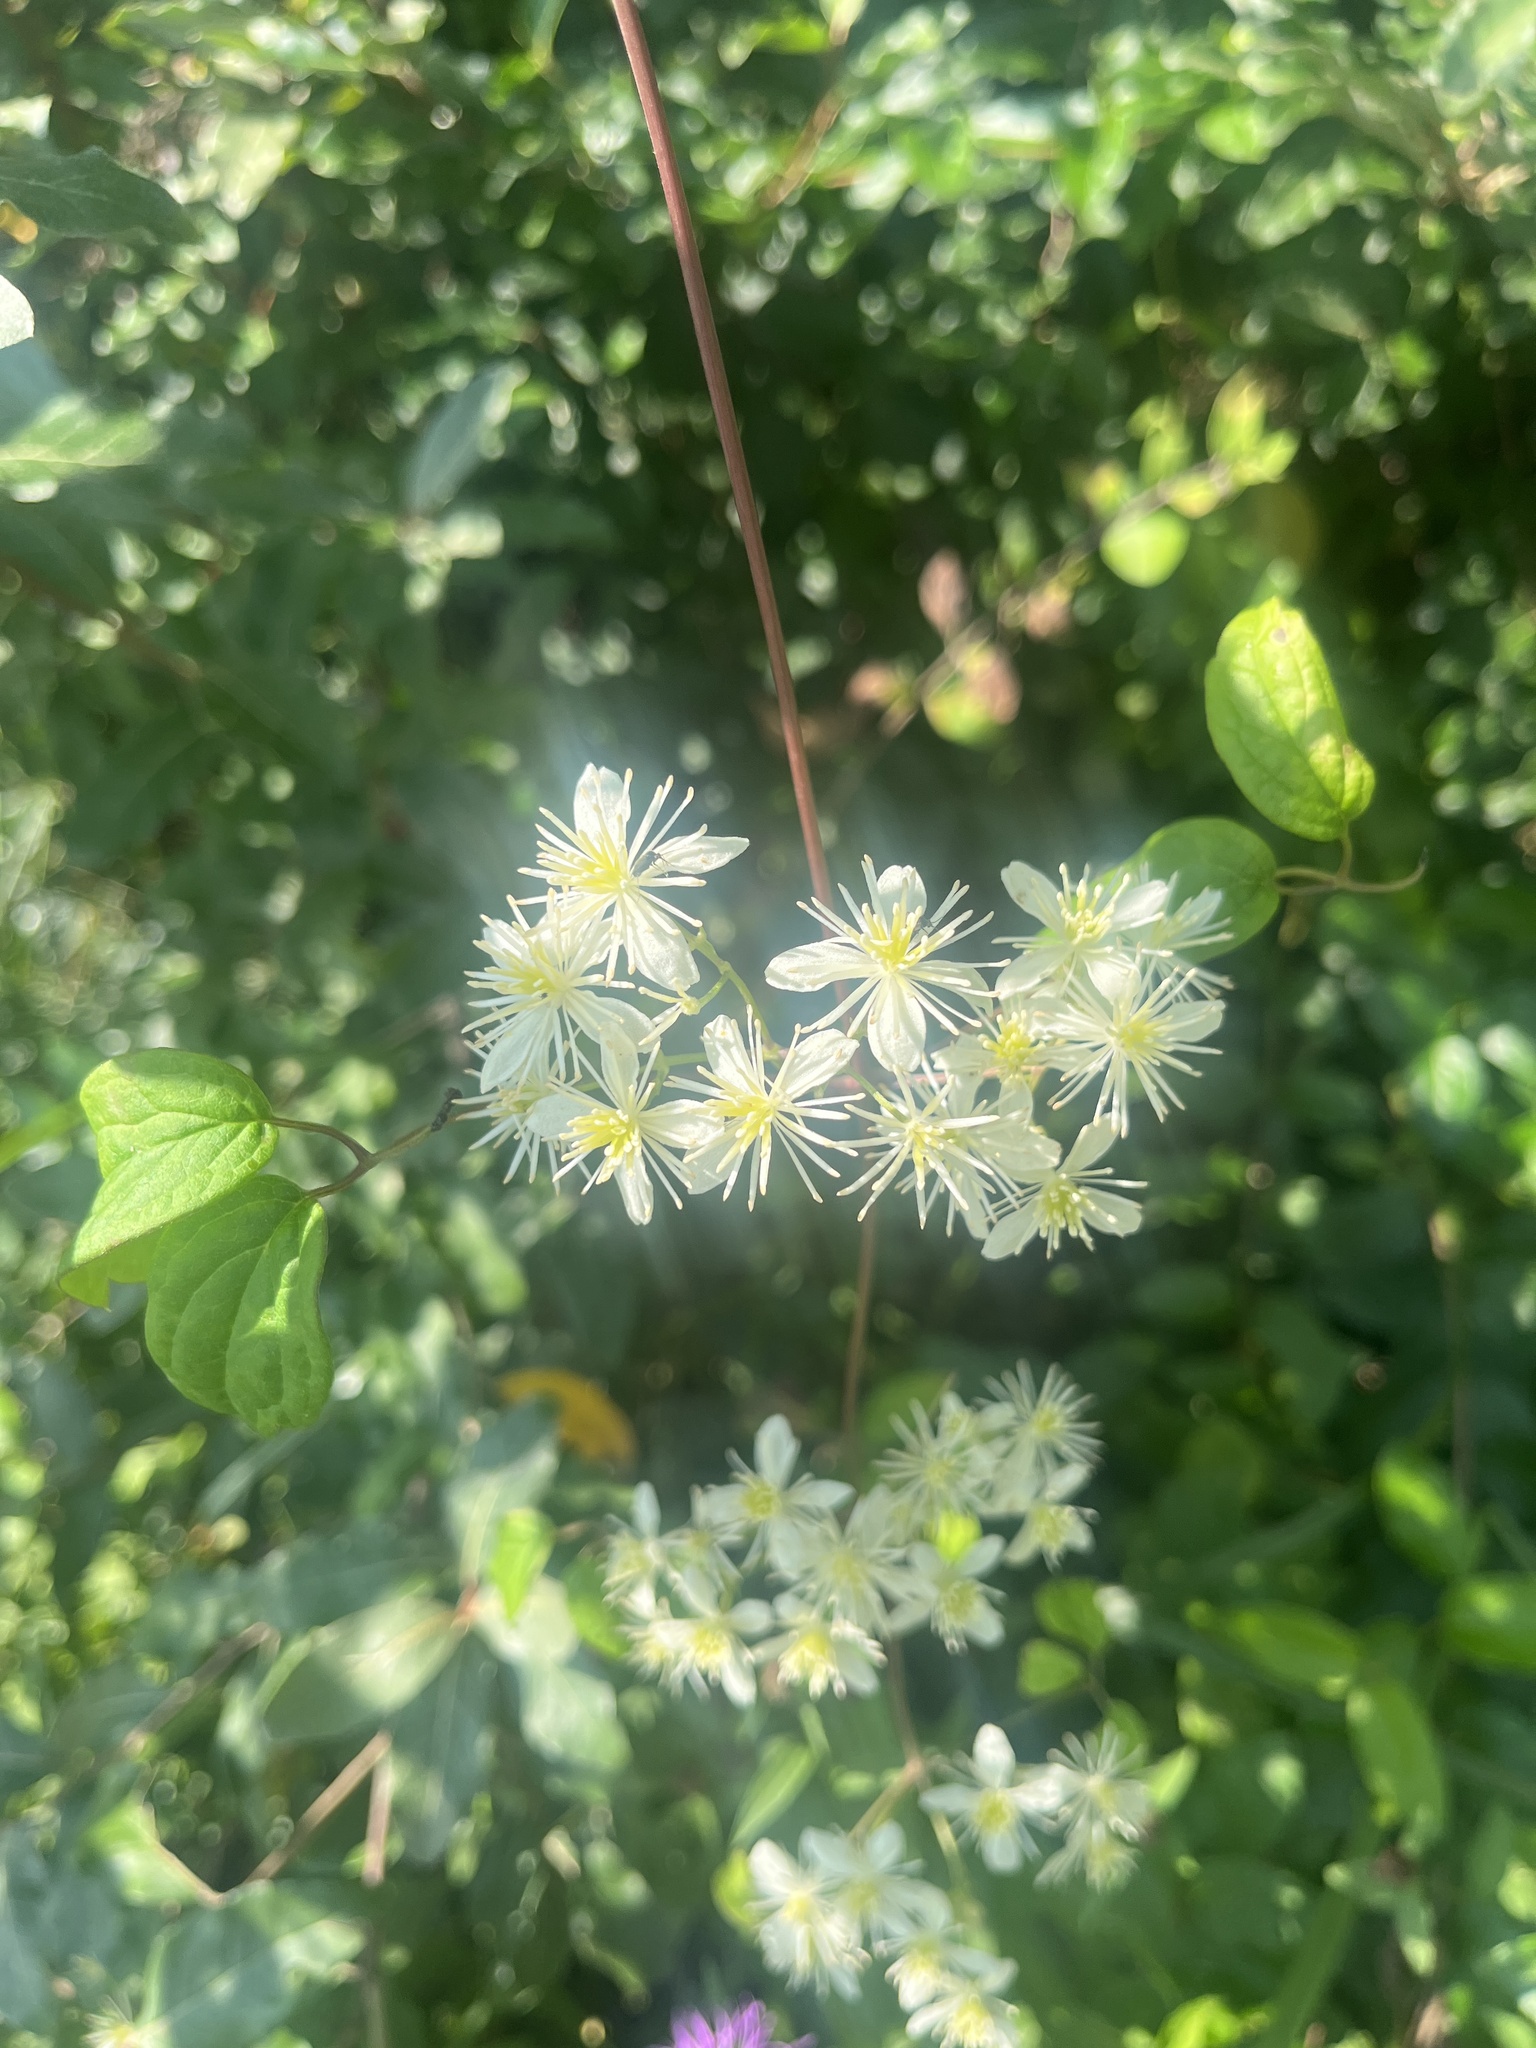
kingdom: Plantae
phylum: Tracheophyta
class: Magnoliopsida
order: Ranunculales
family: Ranunculaceae
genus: Clematis
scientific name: Clematis virginiana
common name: Virgin's-bower
